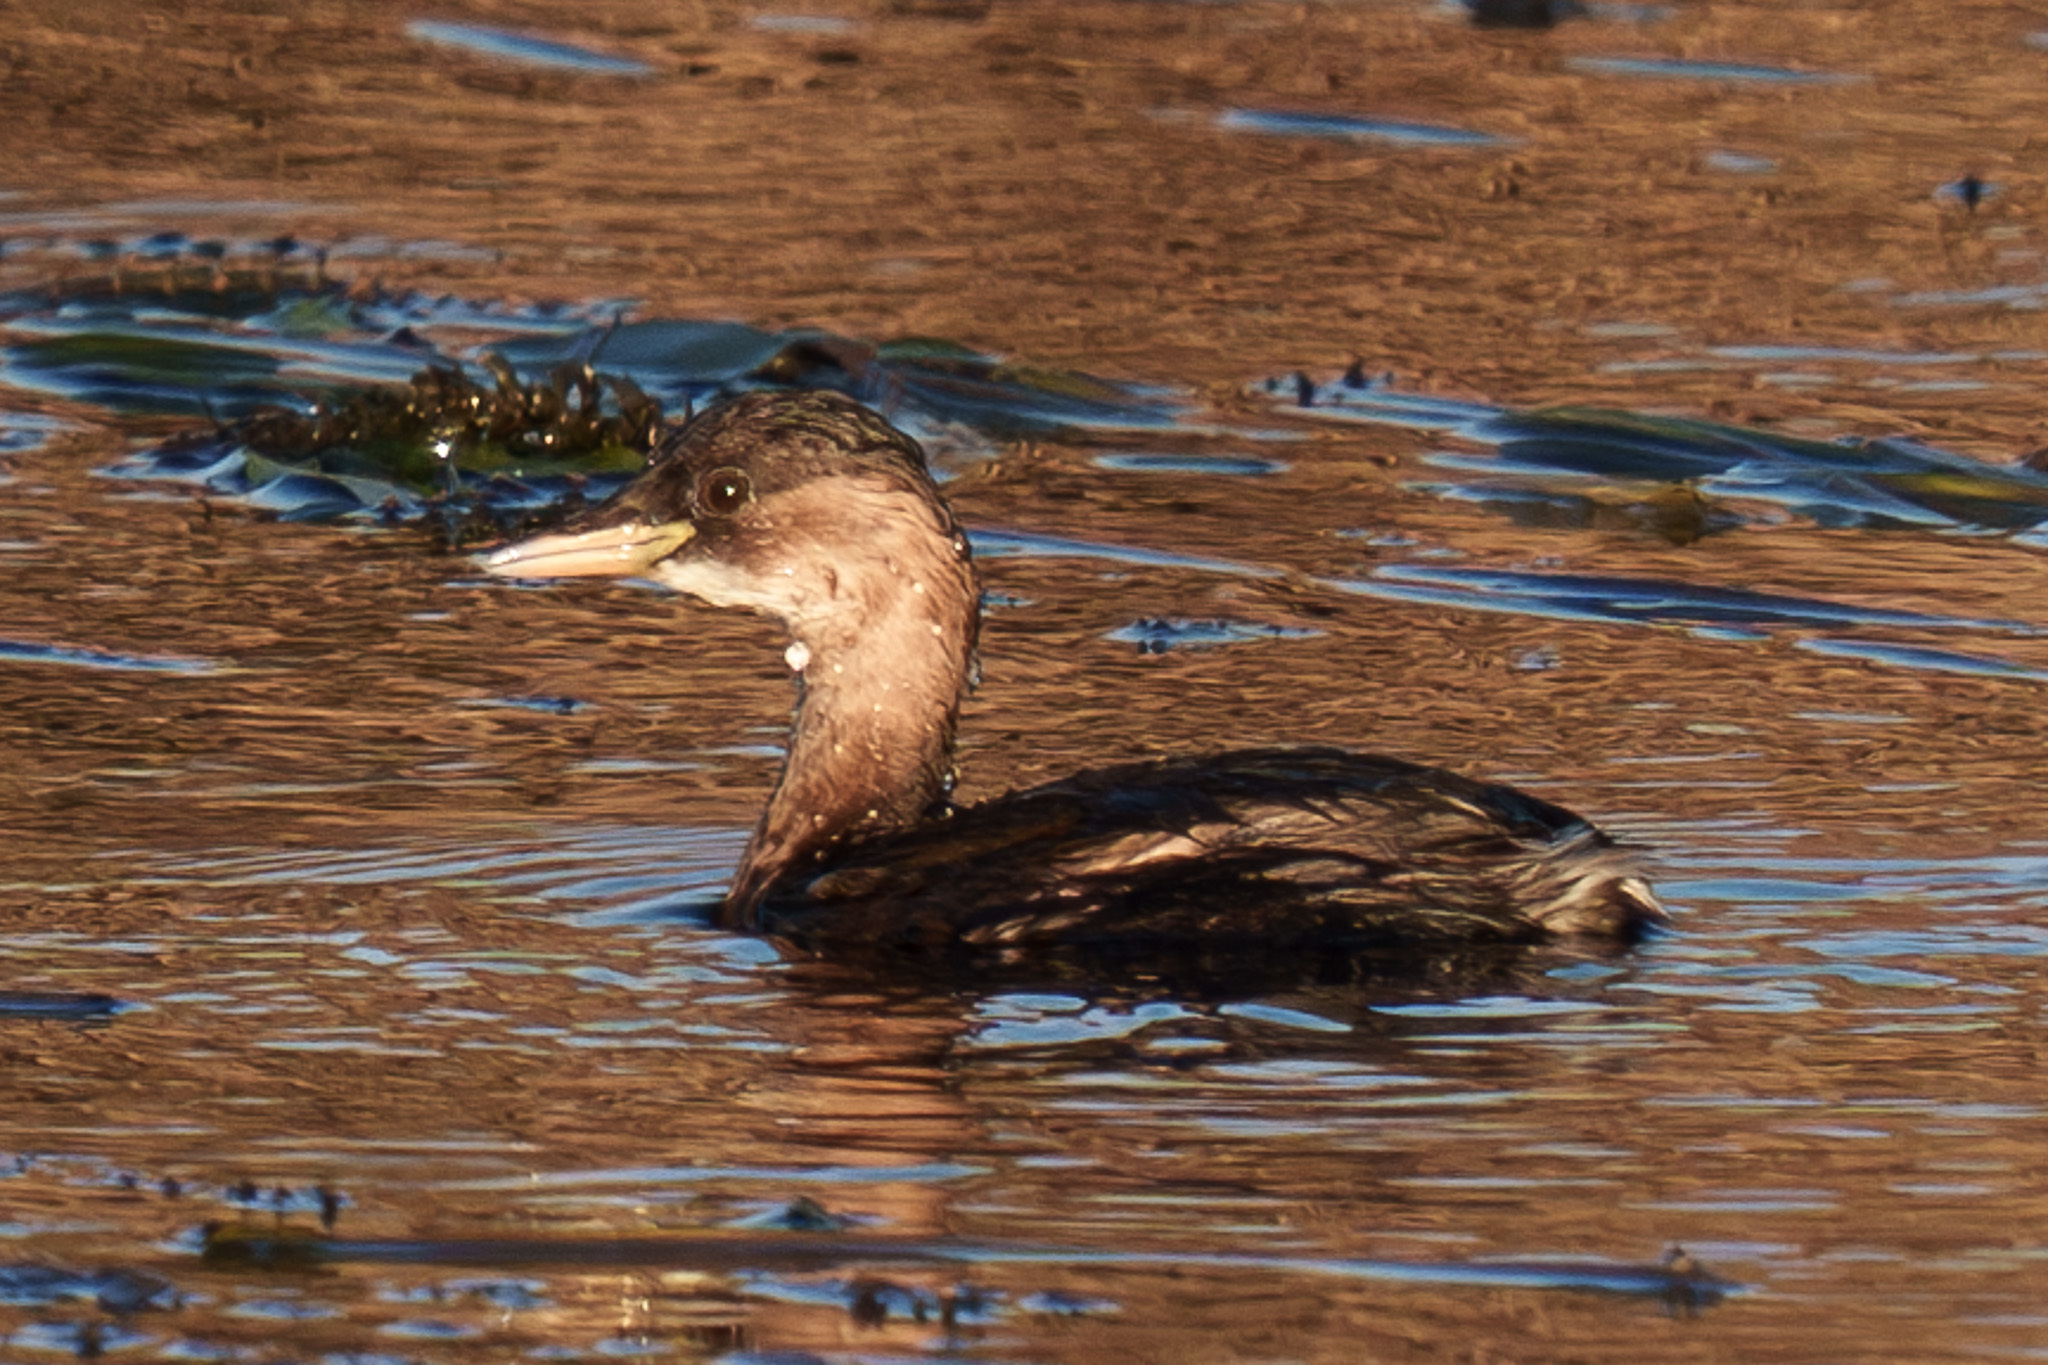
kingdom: Animalia
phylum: Chordata
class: Aves
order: Podicipediformes
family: Podicipedidae
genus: Tachybaptus
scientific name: Tachybaptus ruficollis
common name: Little grebe
